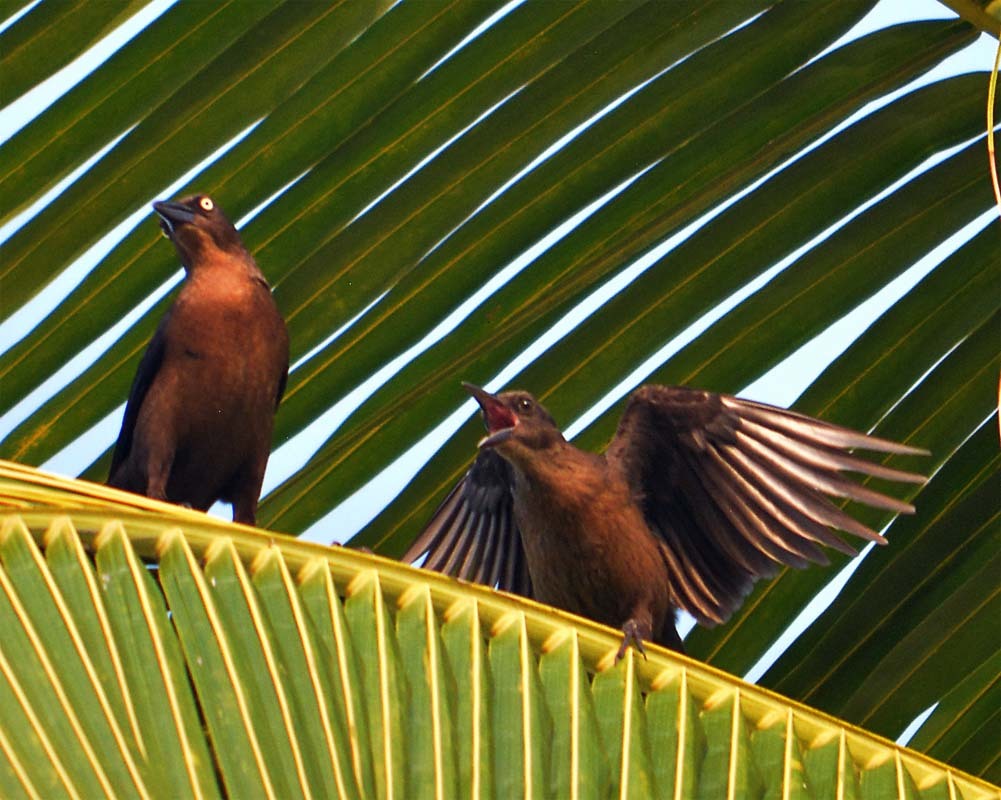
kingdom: Animalia
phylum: Chordata
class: Aves
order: Passeriformes
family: Icteridae
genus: Quiscalus
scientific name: Quiscalus mexicanus
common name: Great-tailed grackle
